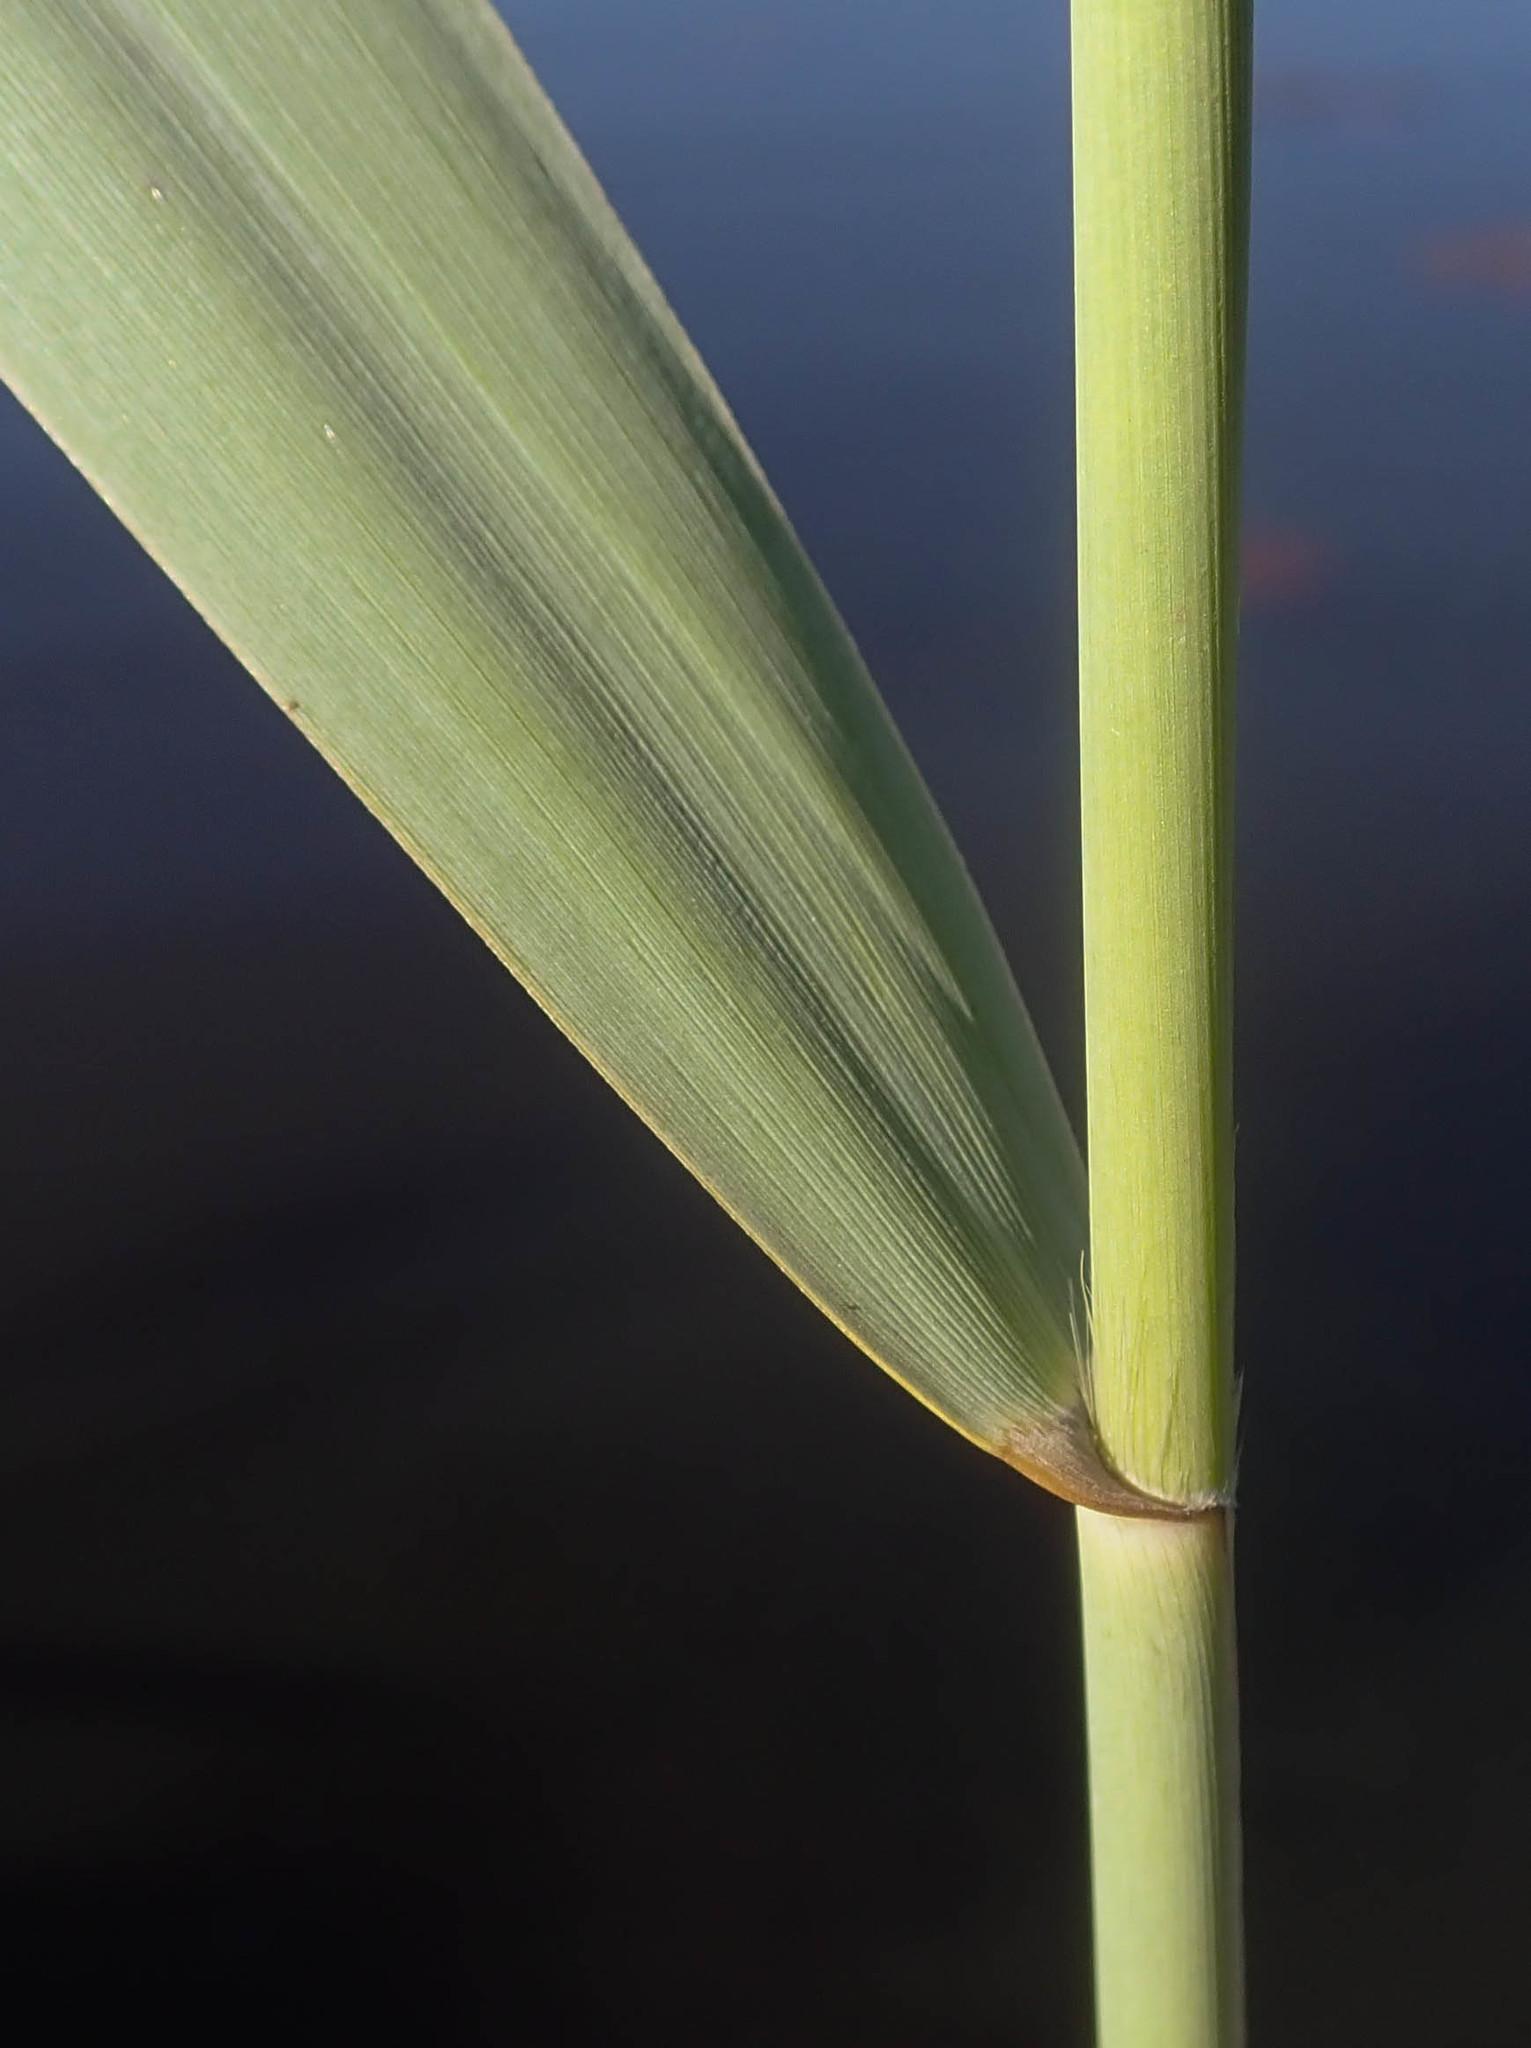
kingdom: Plantae
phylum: Tracheophyta
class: Liliopsida
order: Poales
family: Poaceae
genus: Phragmites
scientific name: Phragmites australis
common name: Common reed
